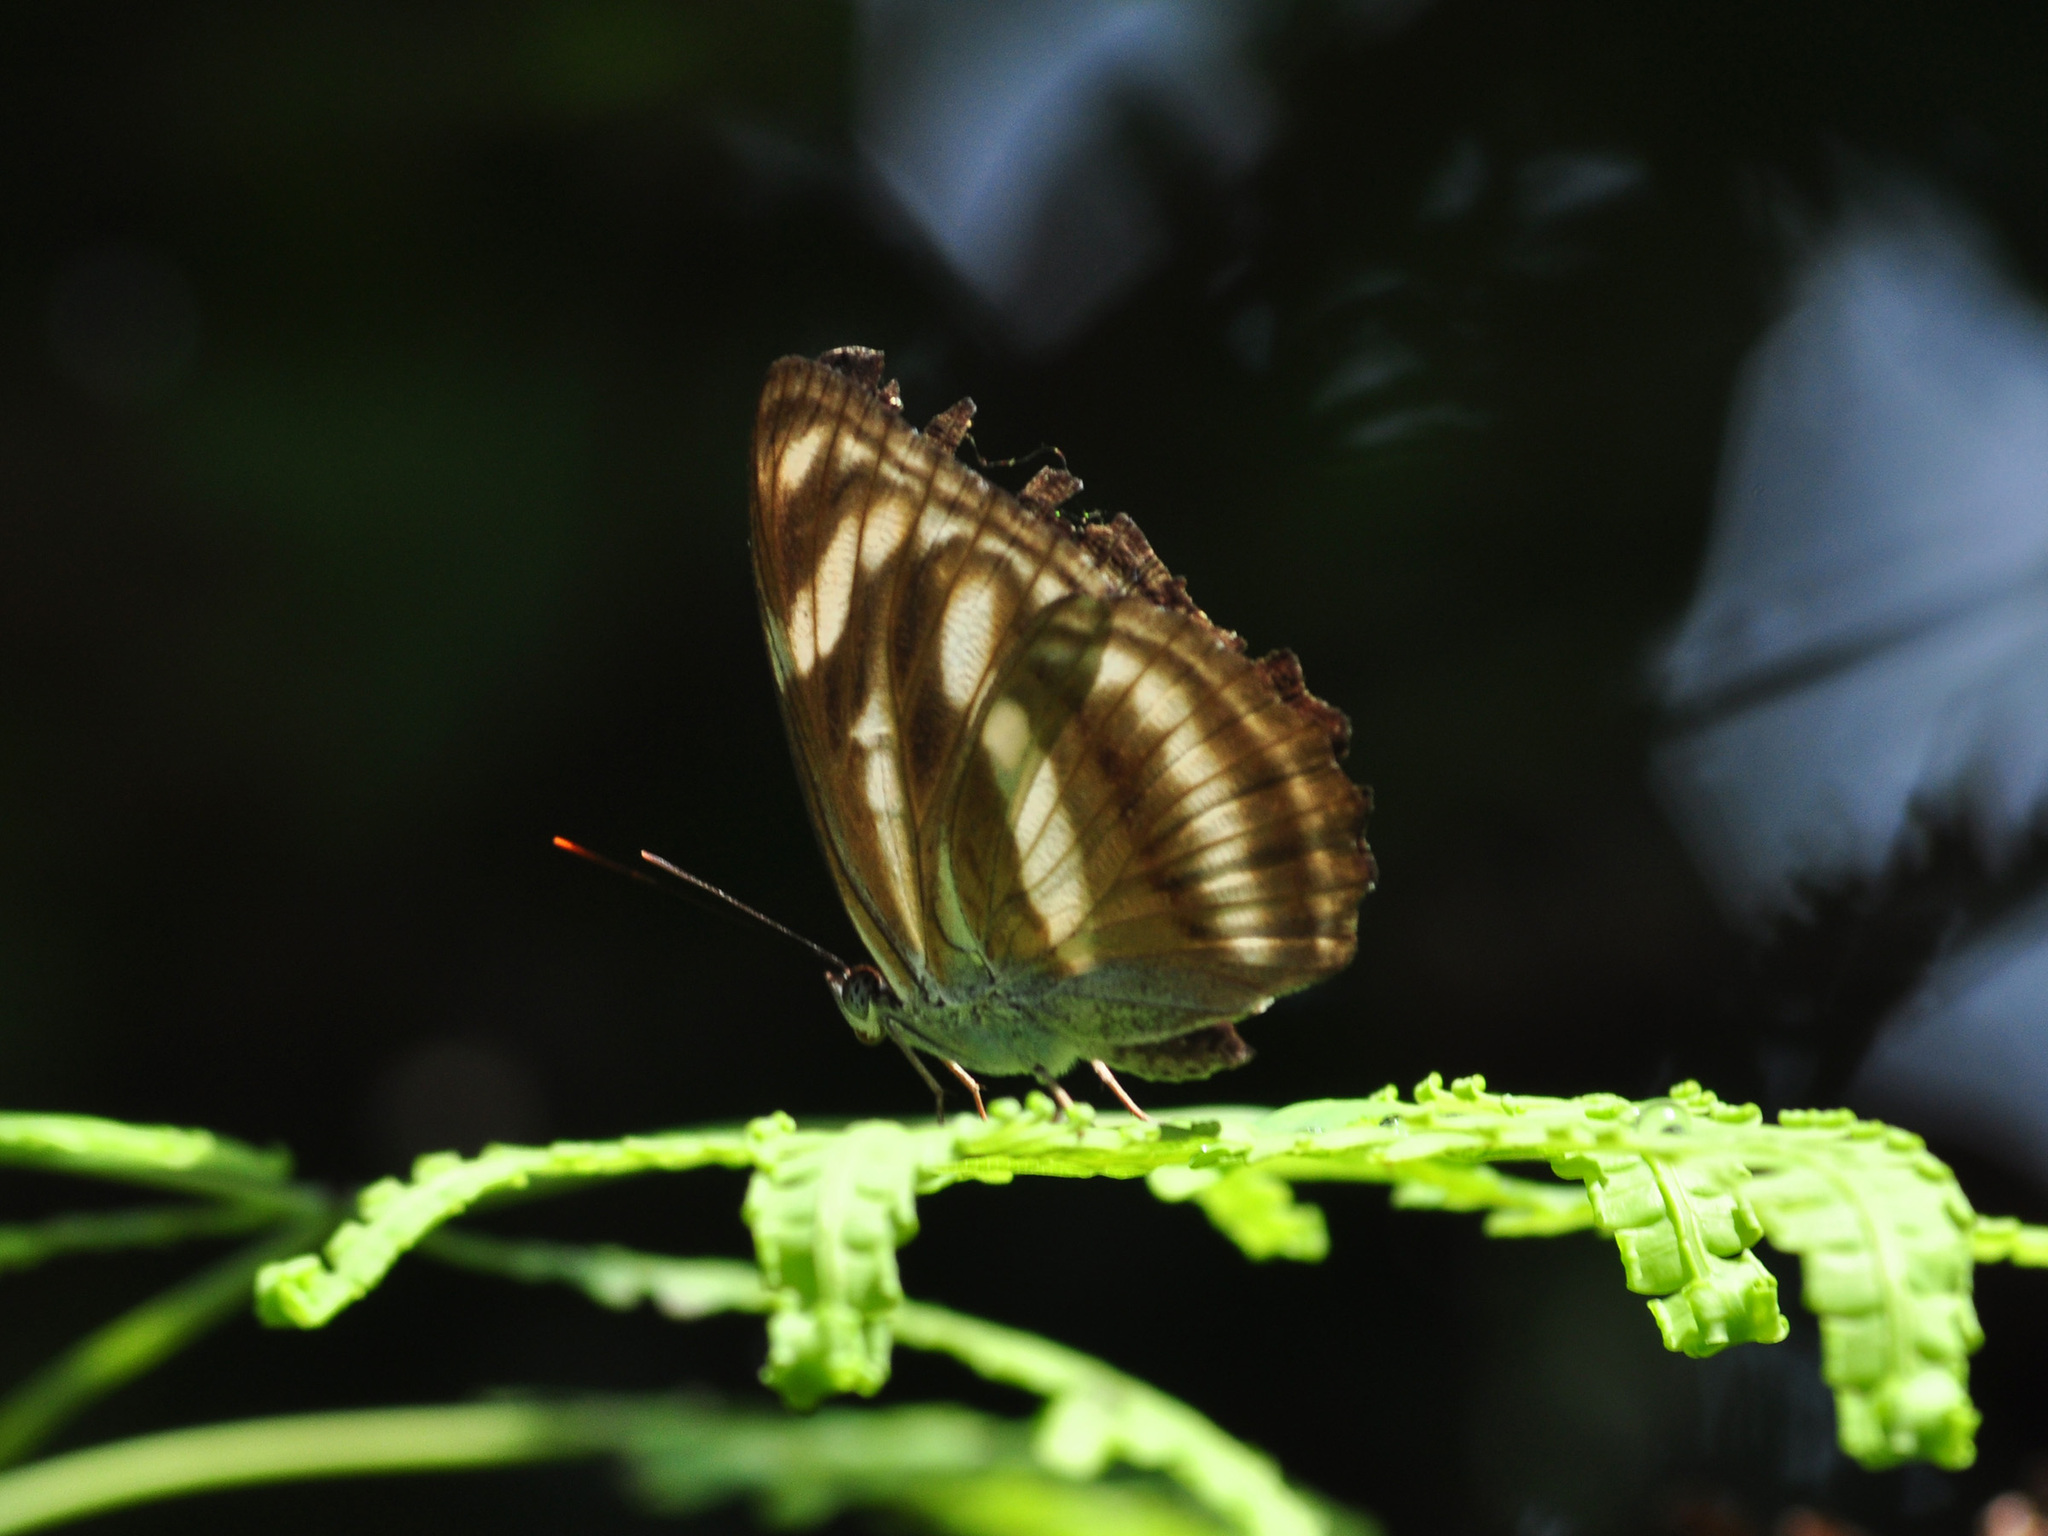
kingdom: Animalia
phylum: Arthropoda
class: Insecta
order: Lepidoptera
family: Nymphalidae
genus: Parathyma
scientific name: Parathyma nefte
